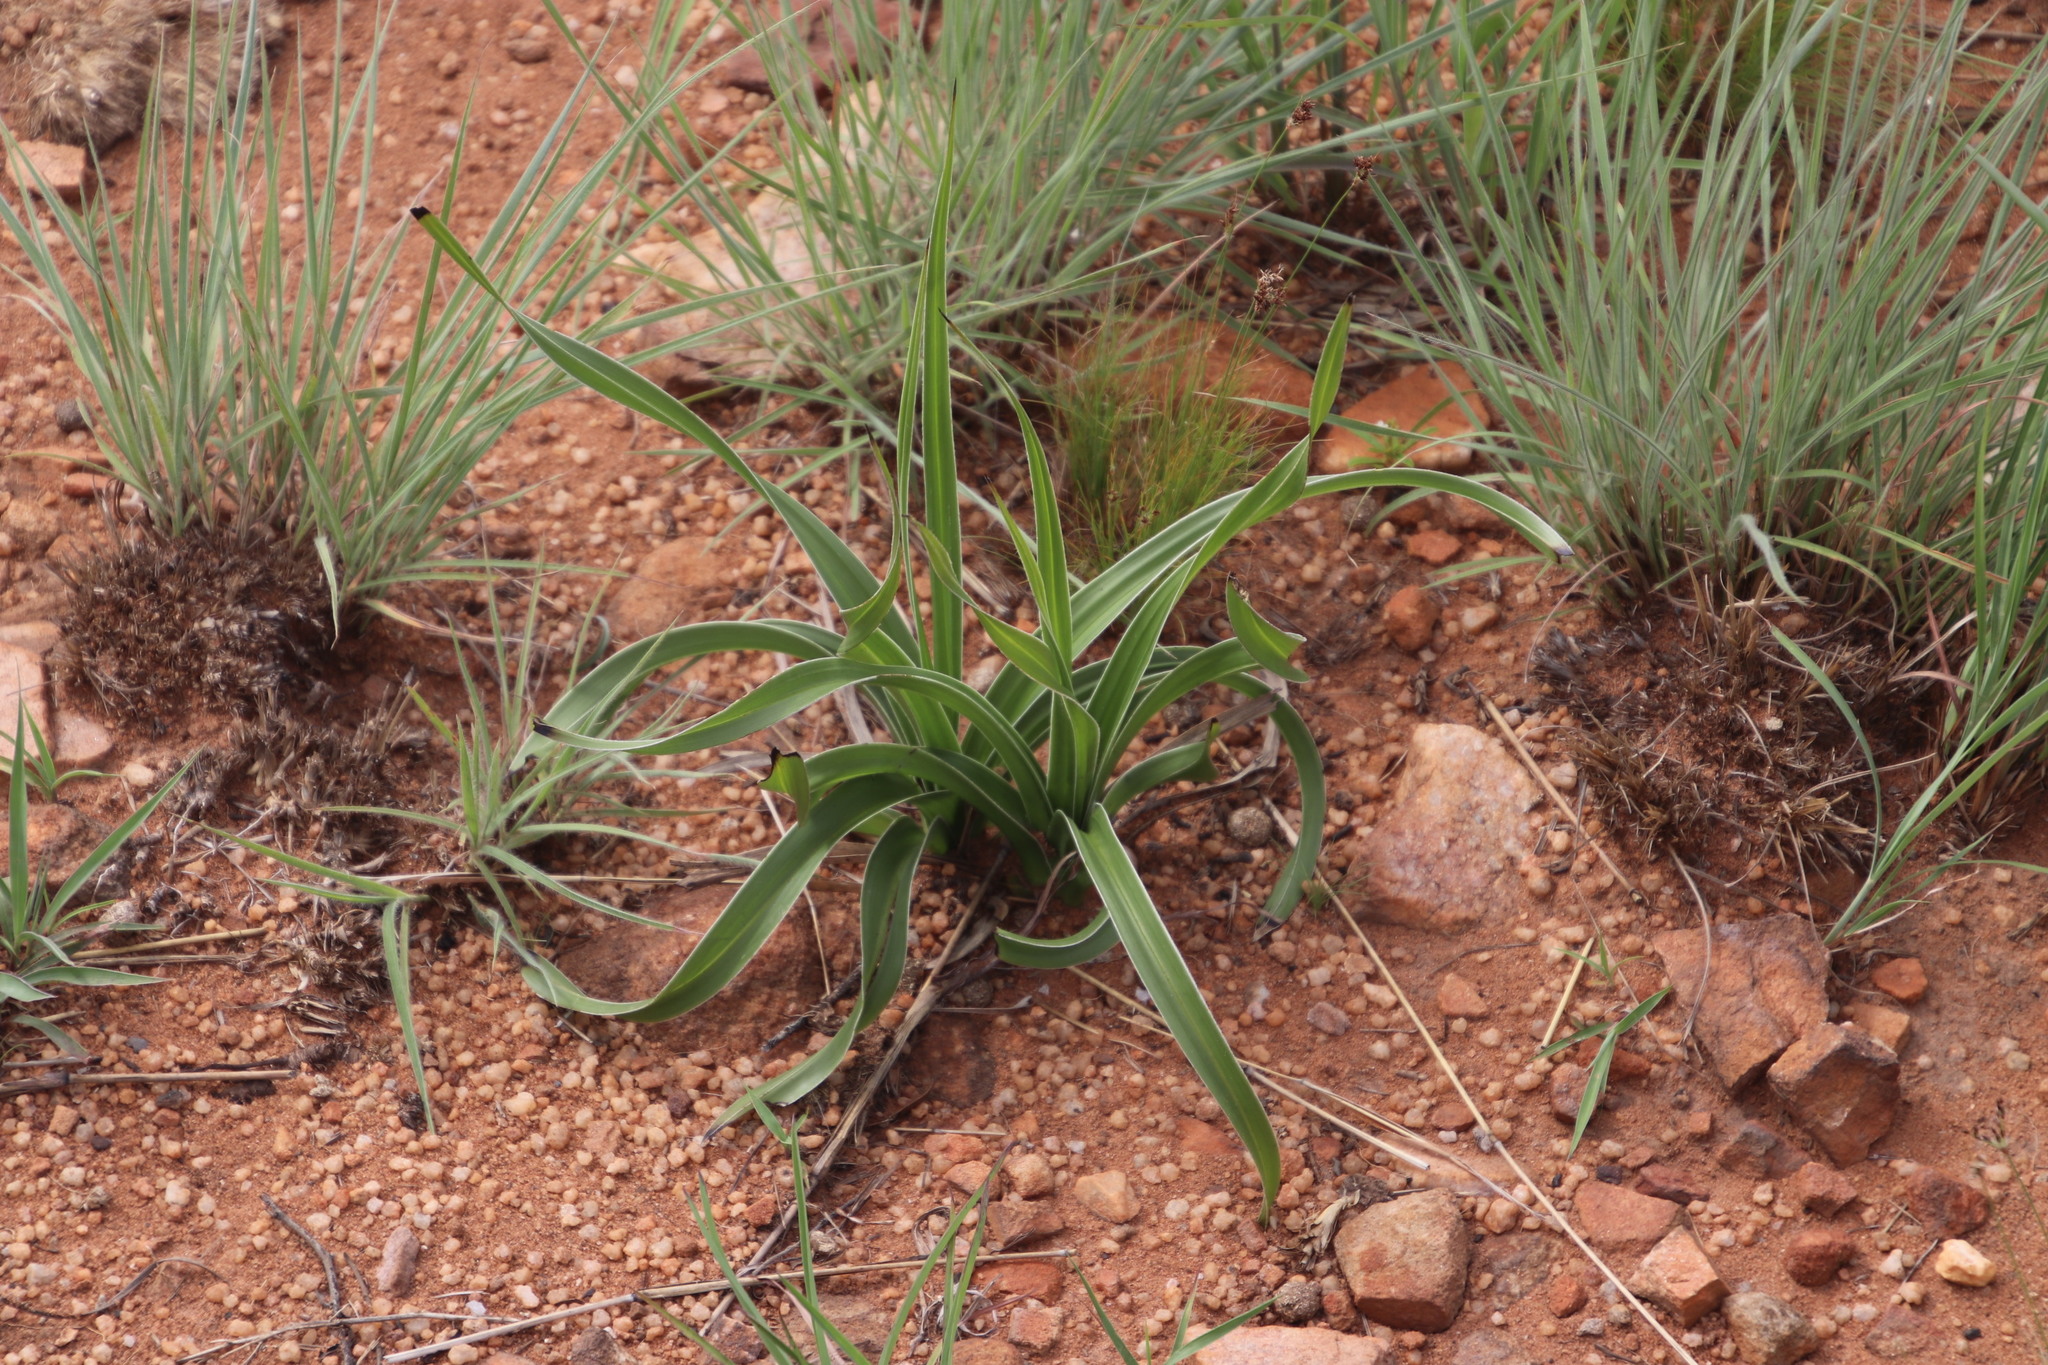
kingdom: Plantae
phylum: Tracheophyta
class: Liliopsida
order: Asparagales
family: Hypoxidaceae
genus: Hypoxis
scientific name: Hypoxis obtusa
